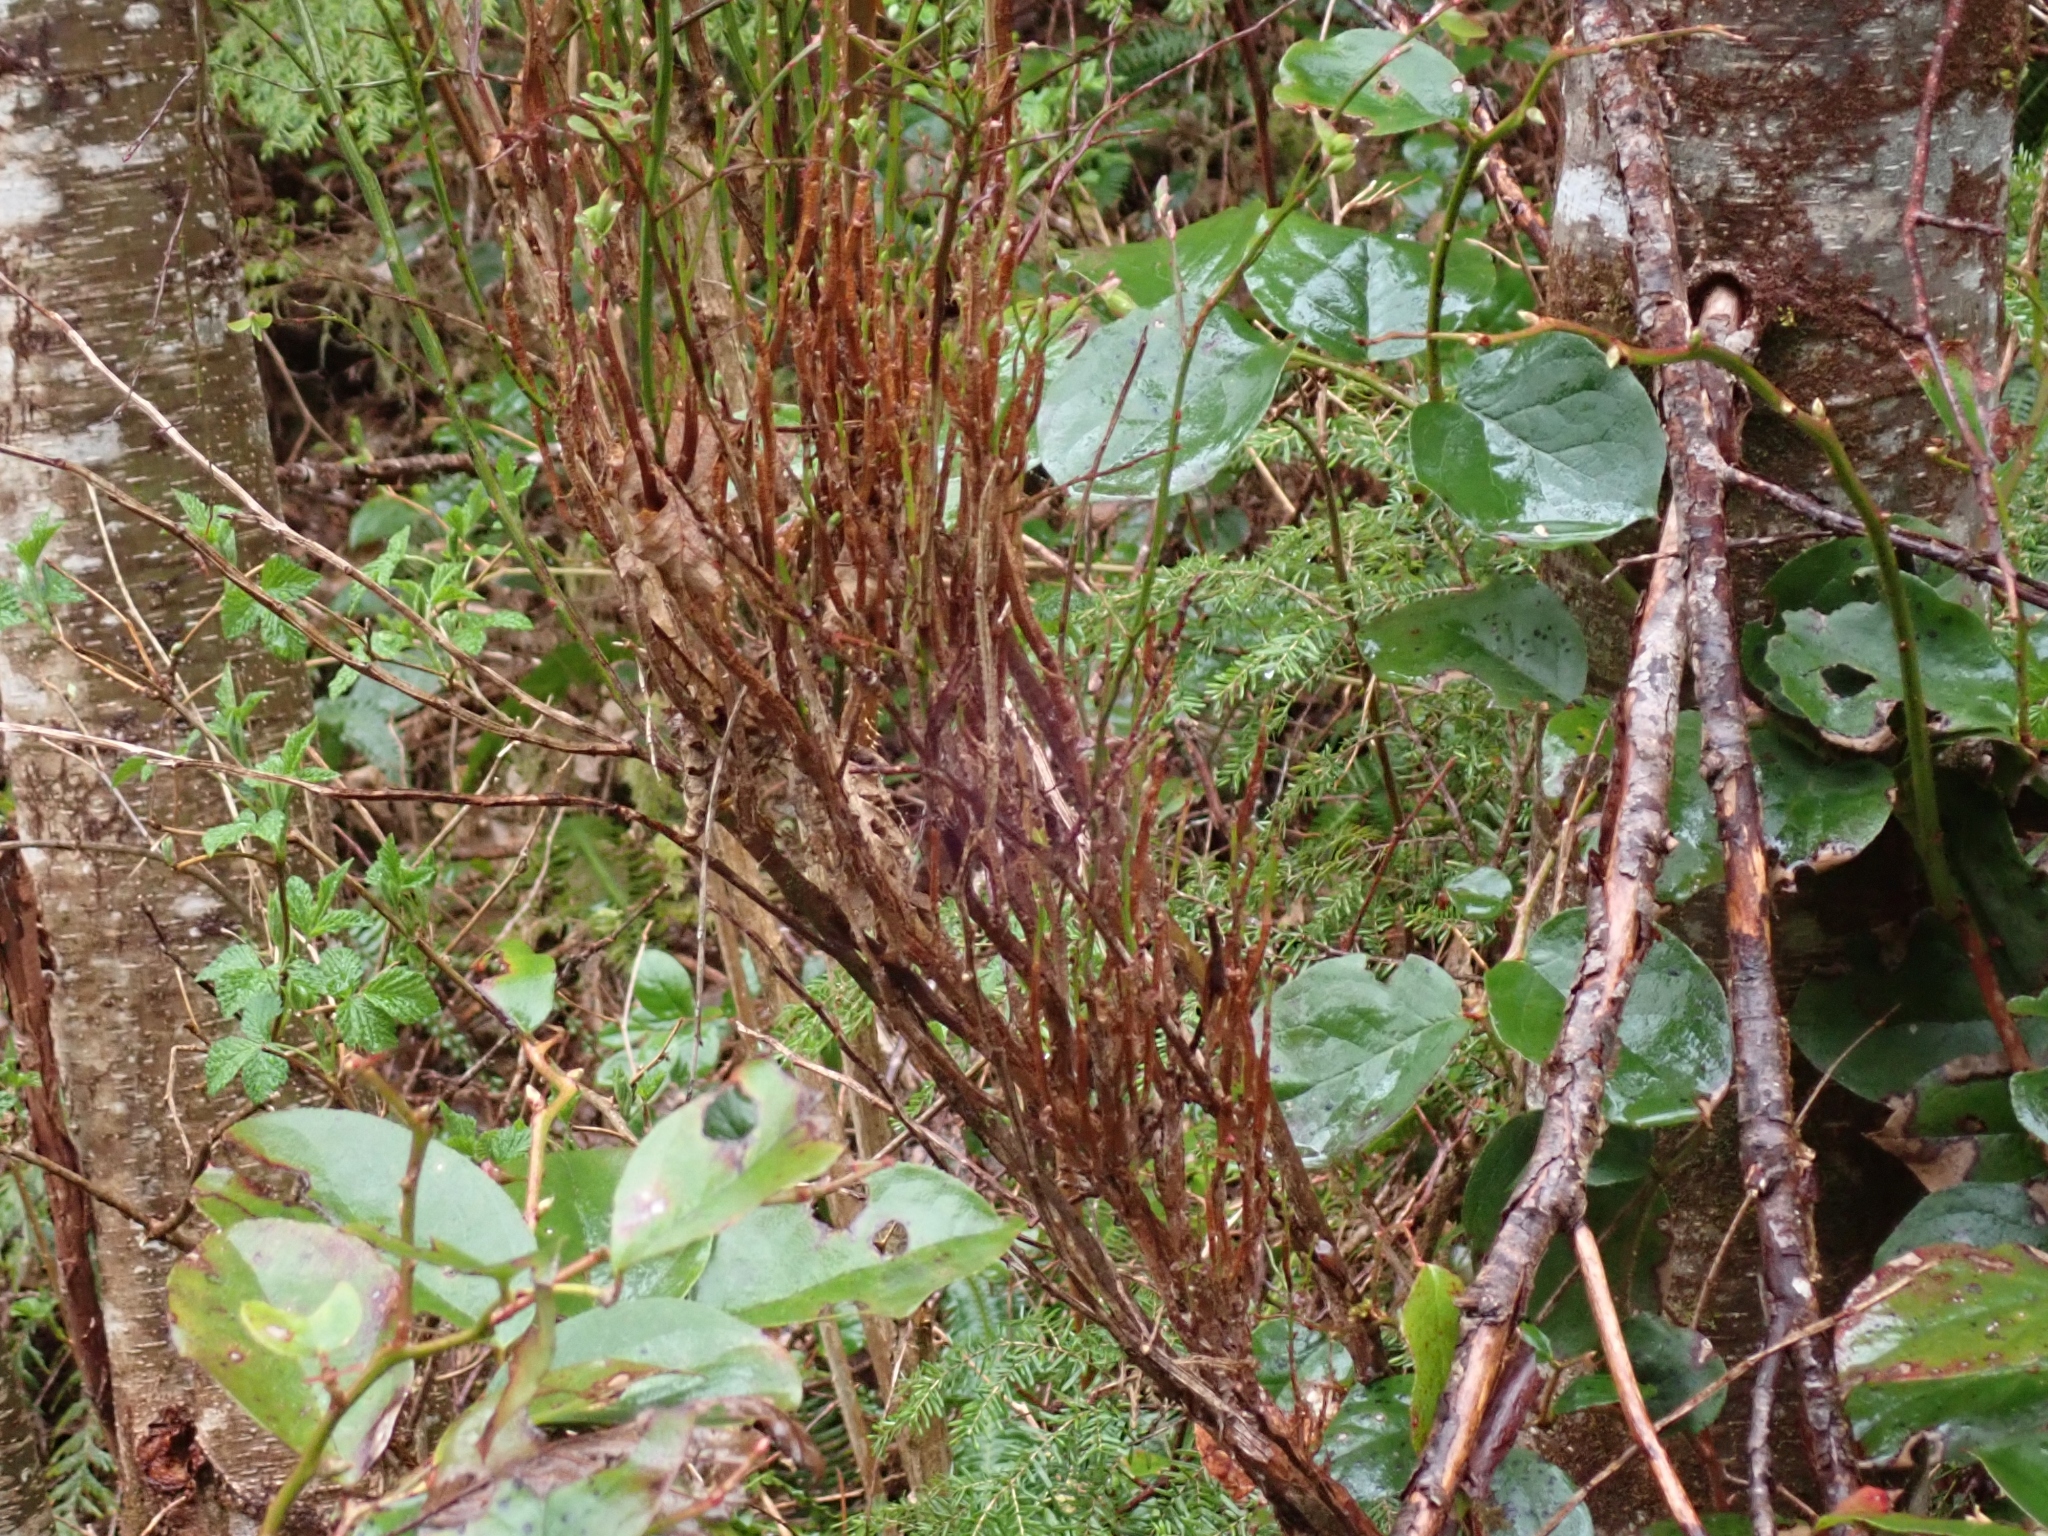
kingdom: Fungi
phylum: Basidiomycota
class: Pucciniomycetes
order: Pucciniales
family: Pucciniastraceae
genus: Calyptospora
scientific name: Calyptospora
